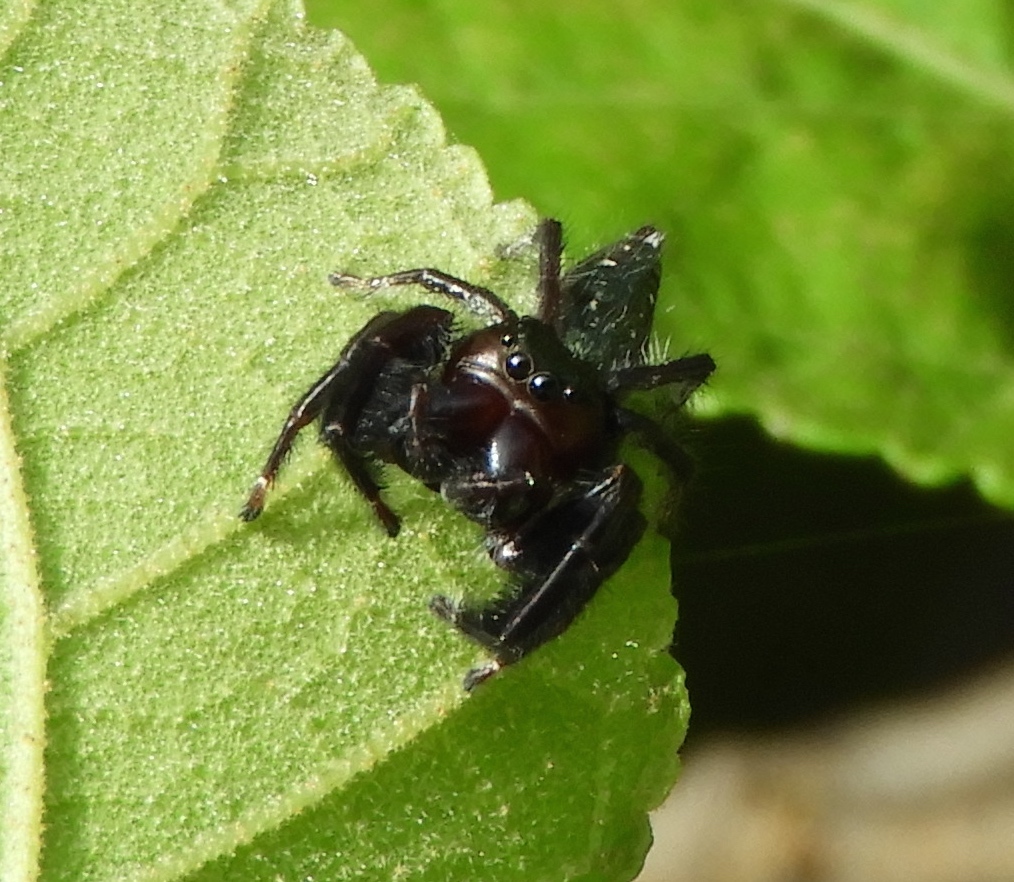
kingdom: Animalia
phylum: Arthropoda
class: Arachnida
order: Araneae
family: Salticidae
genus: Paraphidippus
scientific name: Paraphidippus fartilis
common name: Jumping spiders
